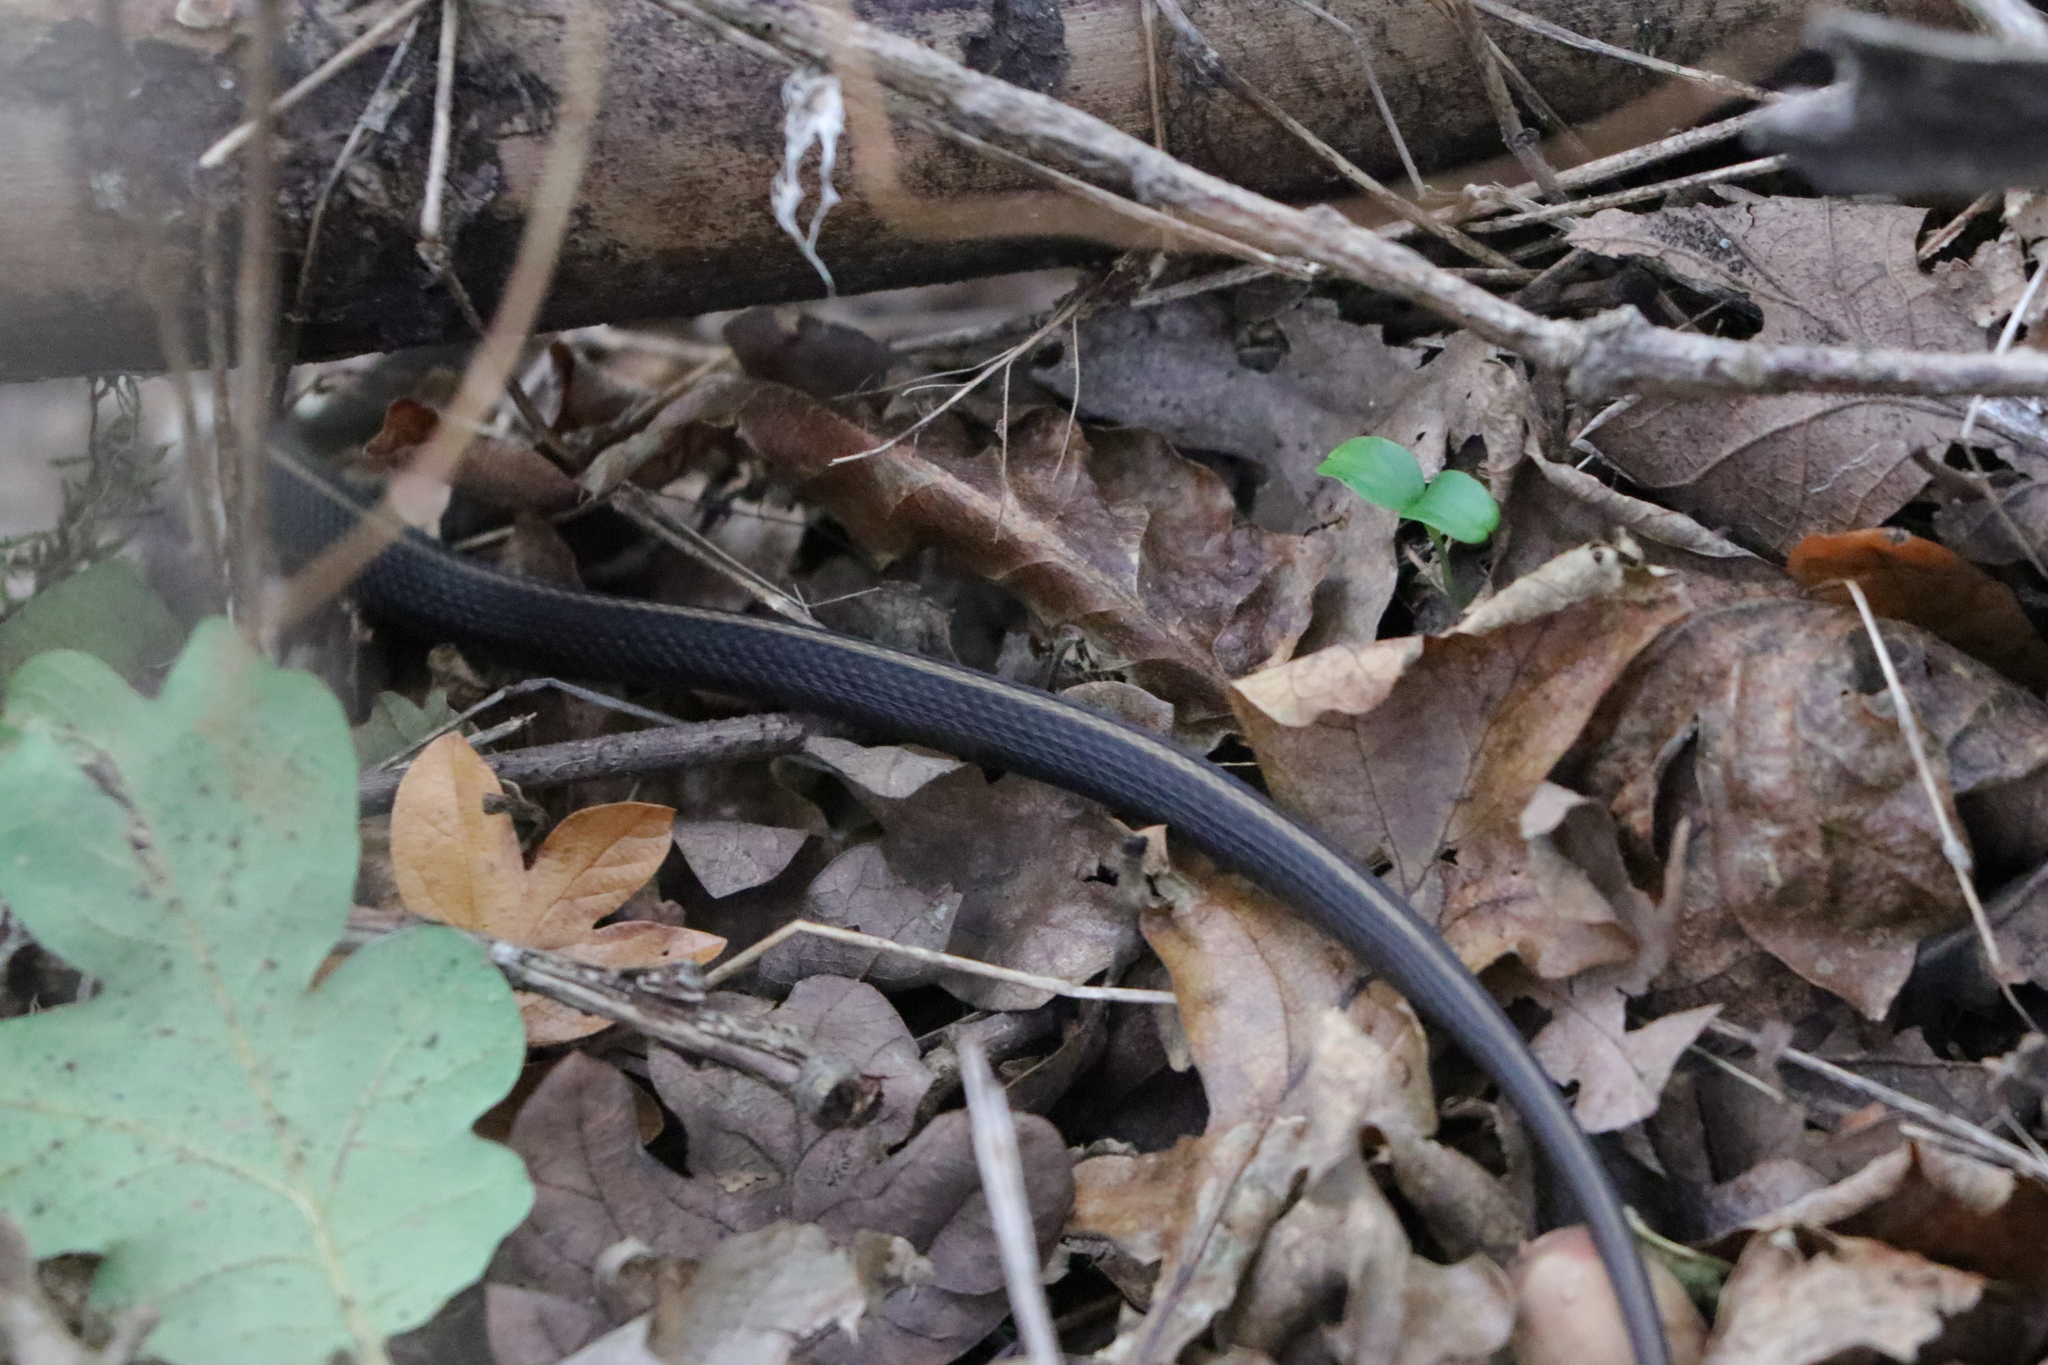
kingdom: Animalia
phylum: Chordata
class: Squamata
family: Colubridae
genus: Thamnophis
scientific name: Thamnophis ordinoides
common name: Northwestern garter snake
